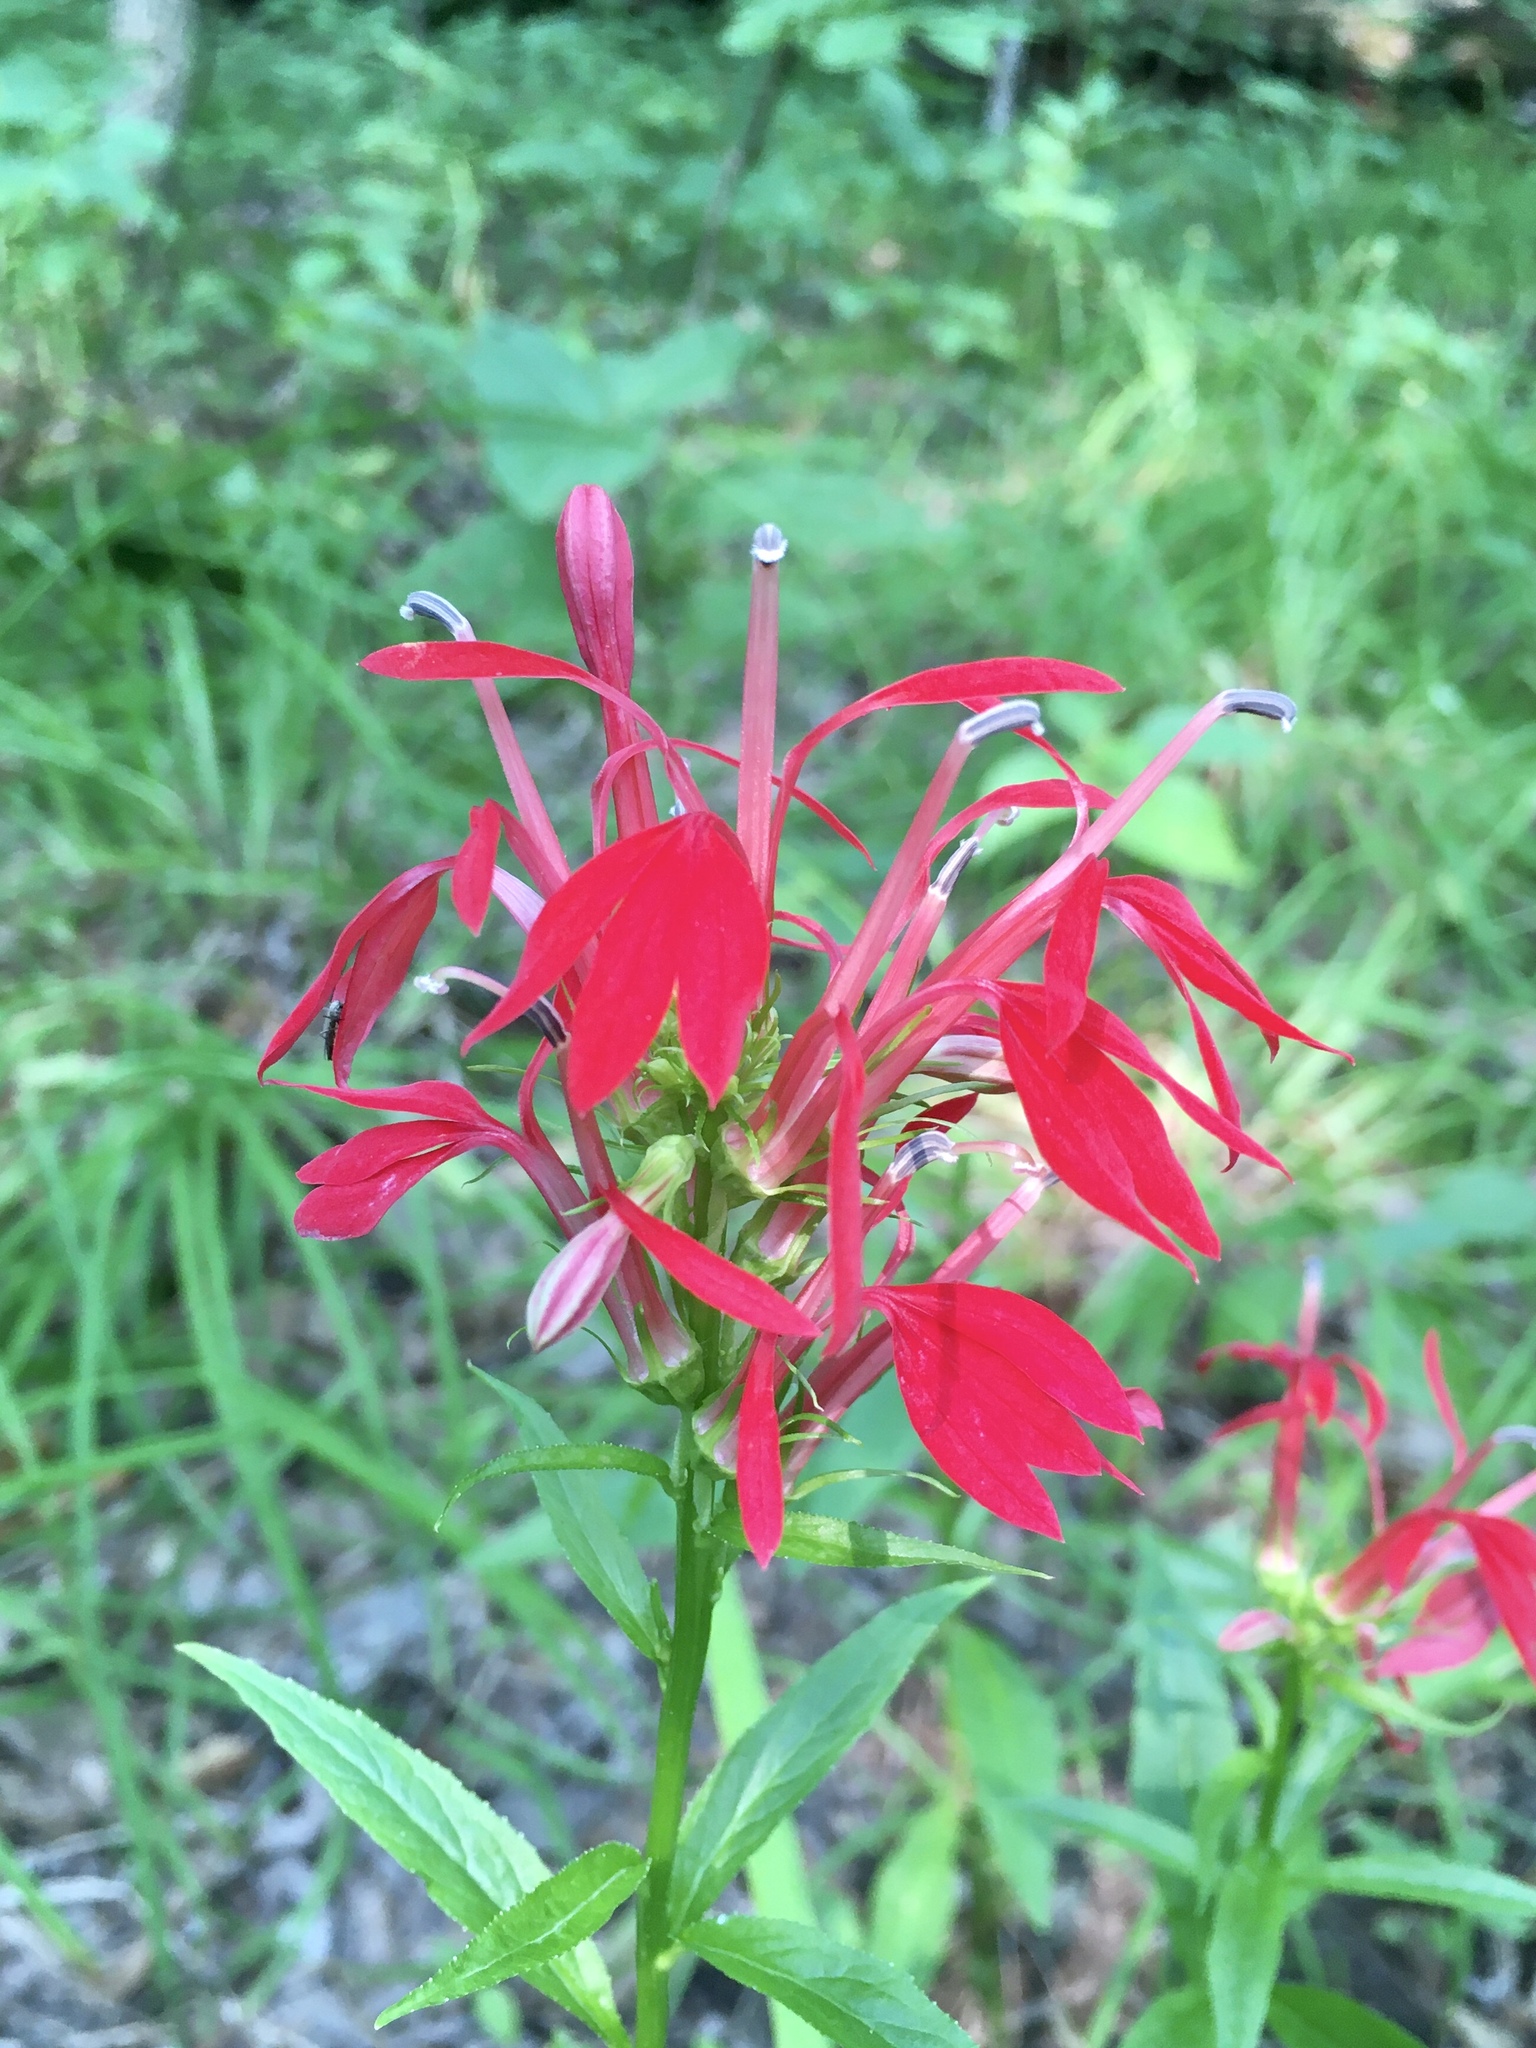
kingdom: Plantae
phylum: Tracheophyta
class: Magnoliopsida
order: Asterales
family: Campanulaceae
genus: Lobelia
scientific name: Lobelia cardinalis
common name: Cardinal flower
